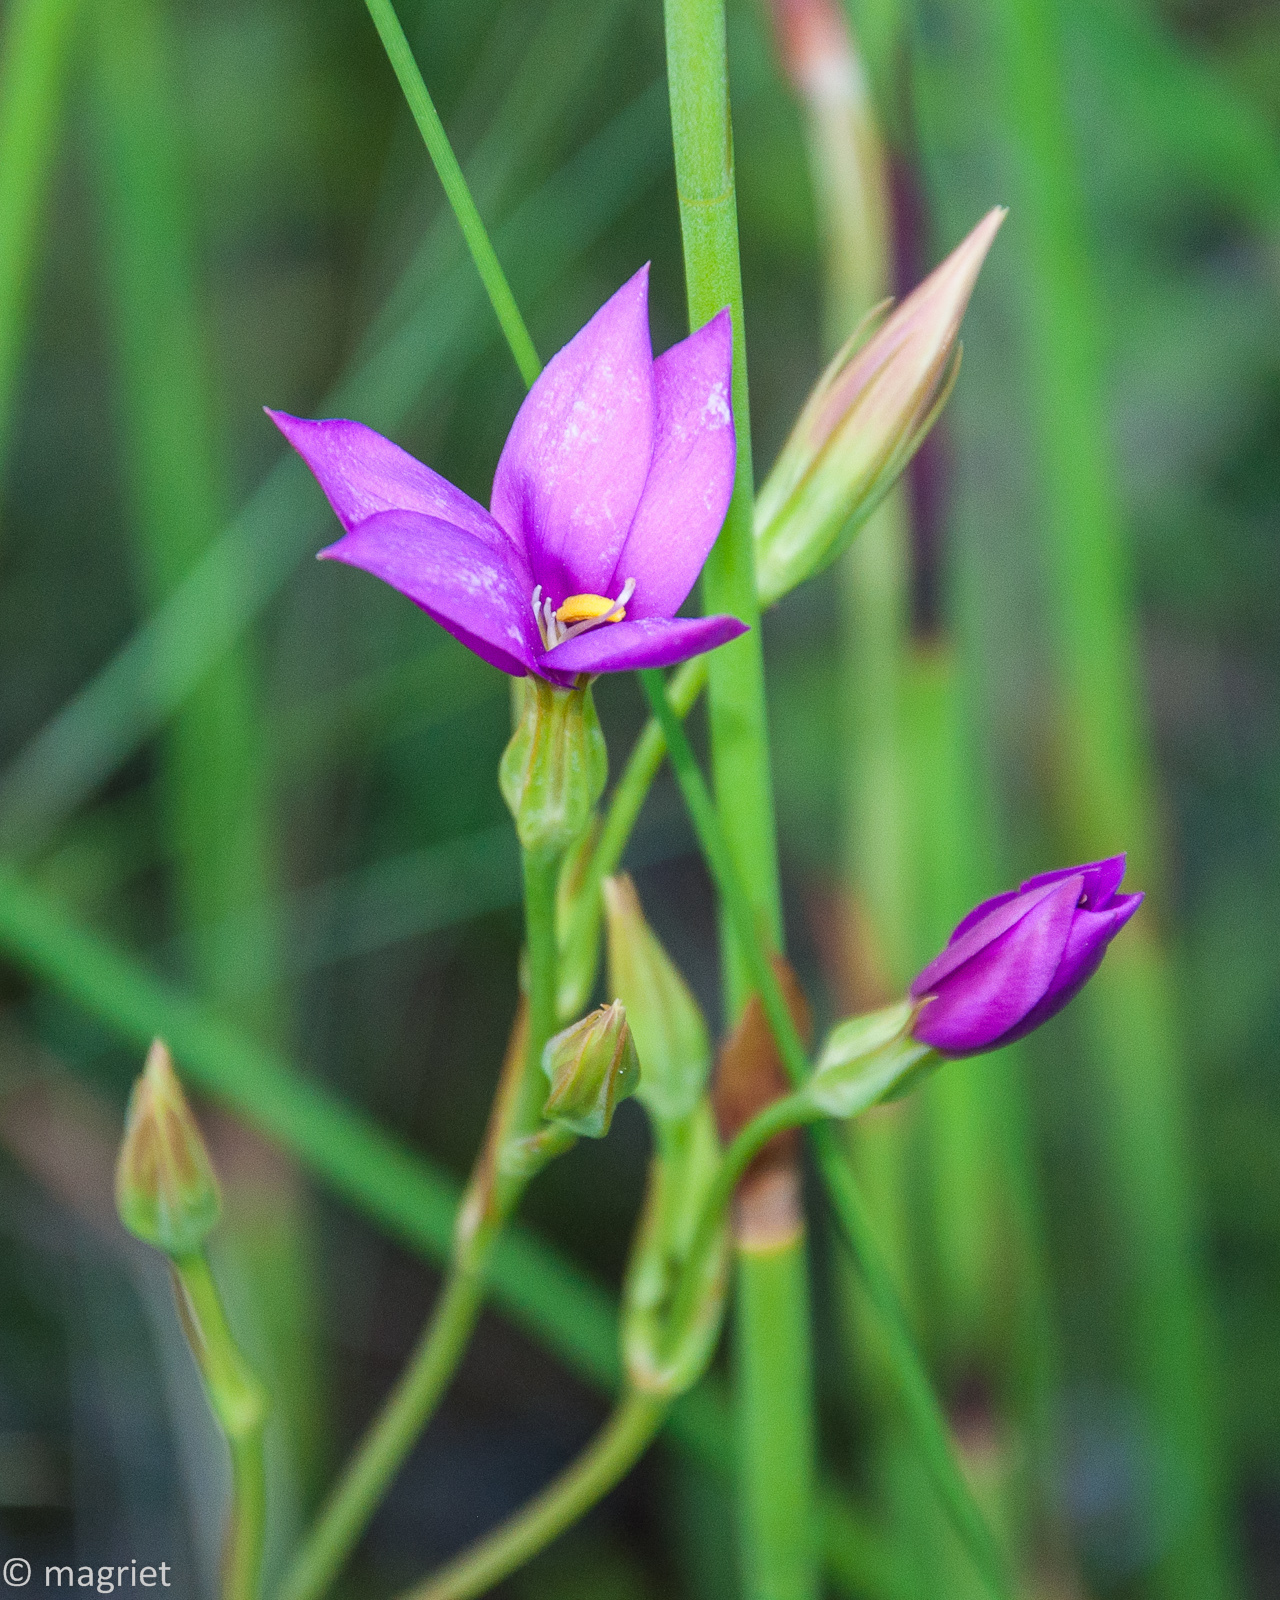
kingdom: Plantae
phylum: Tracheophyta
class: Magnoliopsida
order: Gentianales
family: Gentianaceae
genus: Chironia
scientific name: Chironia jasminoides
